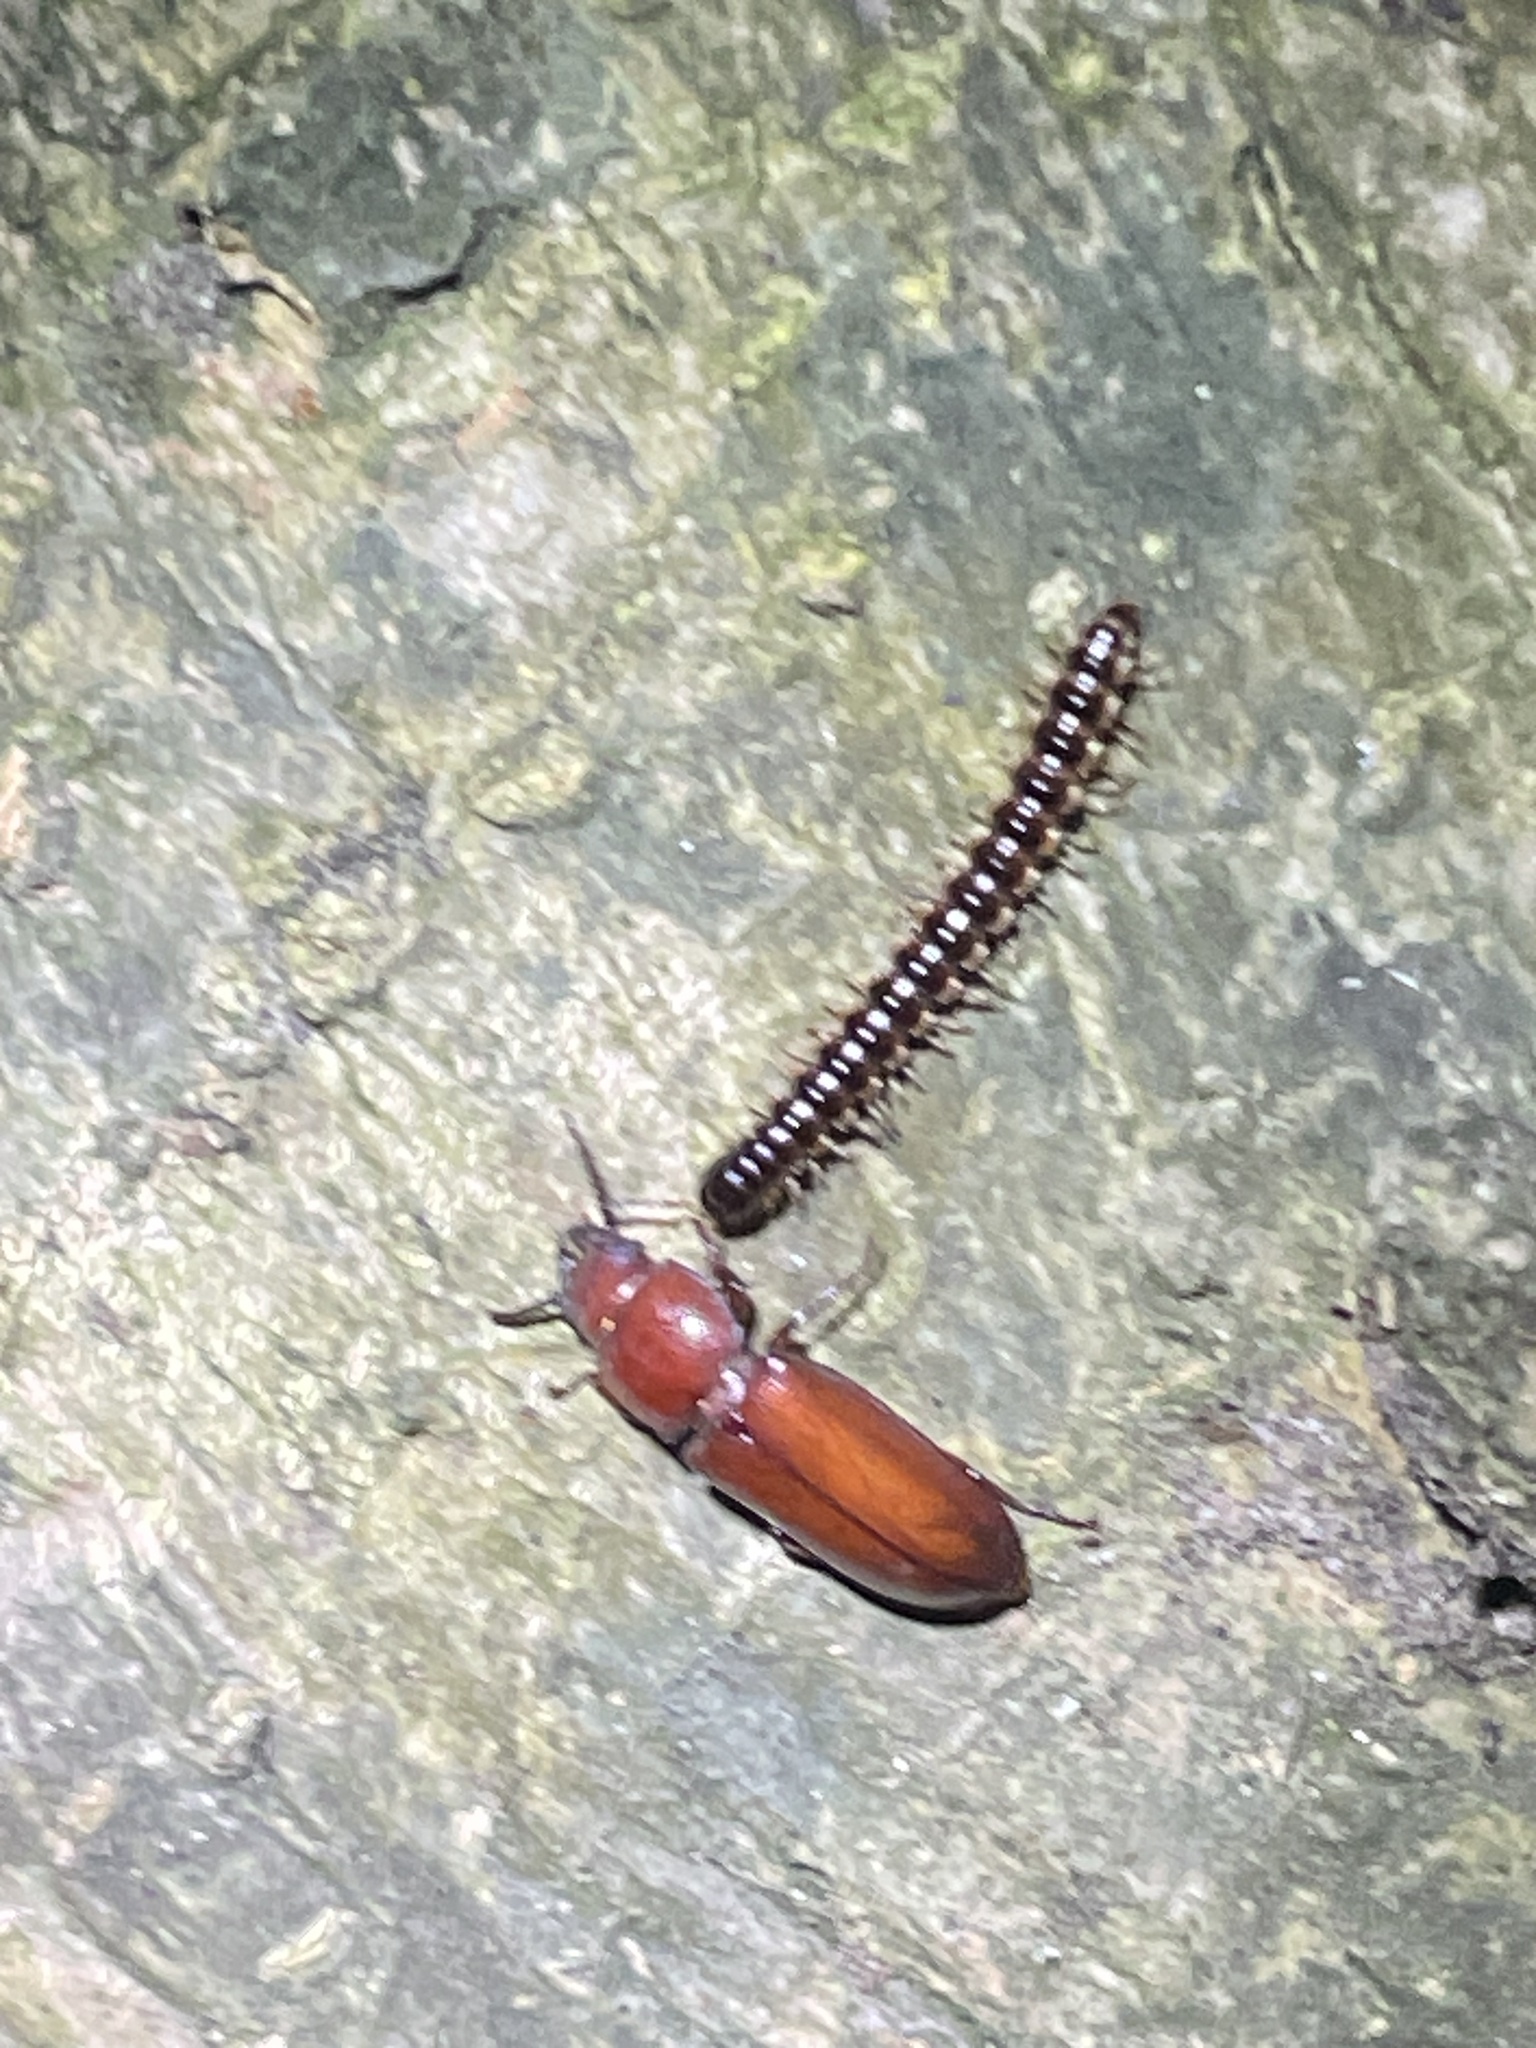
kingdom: Animalia
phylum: Arthropoda
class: Insecta
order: Coleoptera
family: Cerambycidae
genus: Neandra
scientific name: Neandra brunnea
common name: Pole borer
